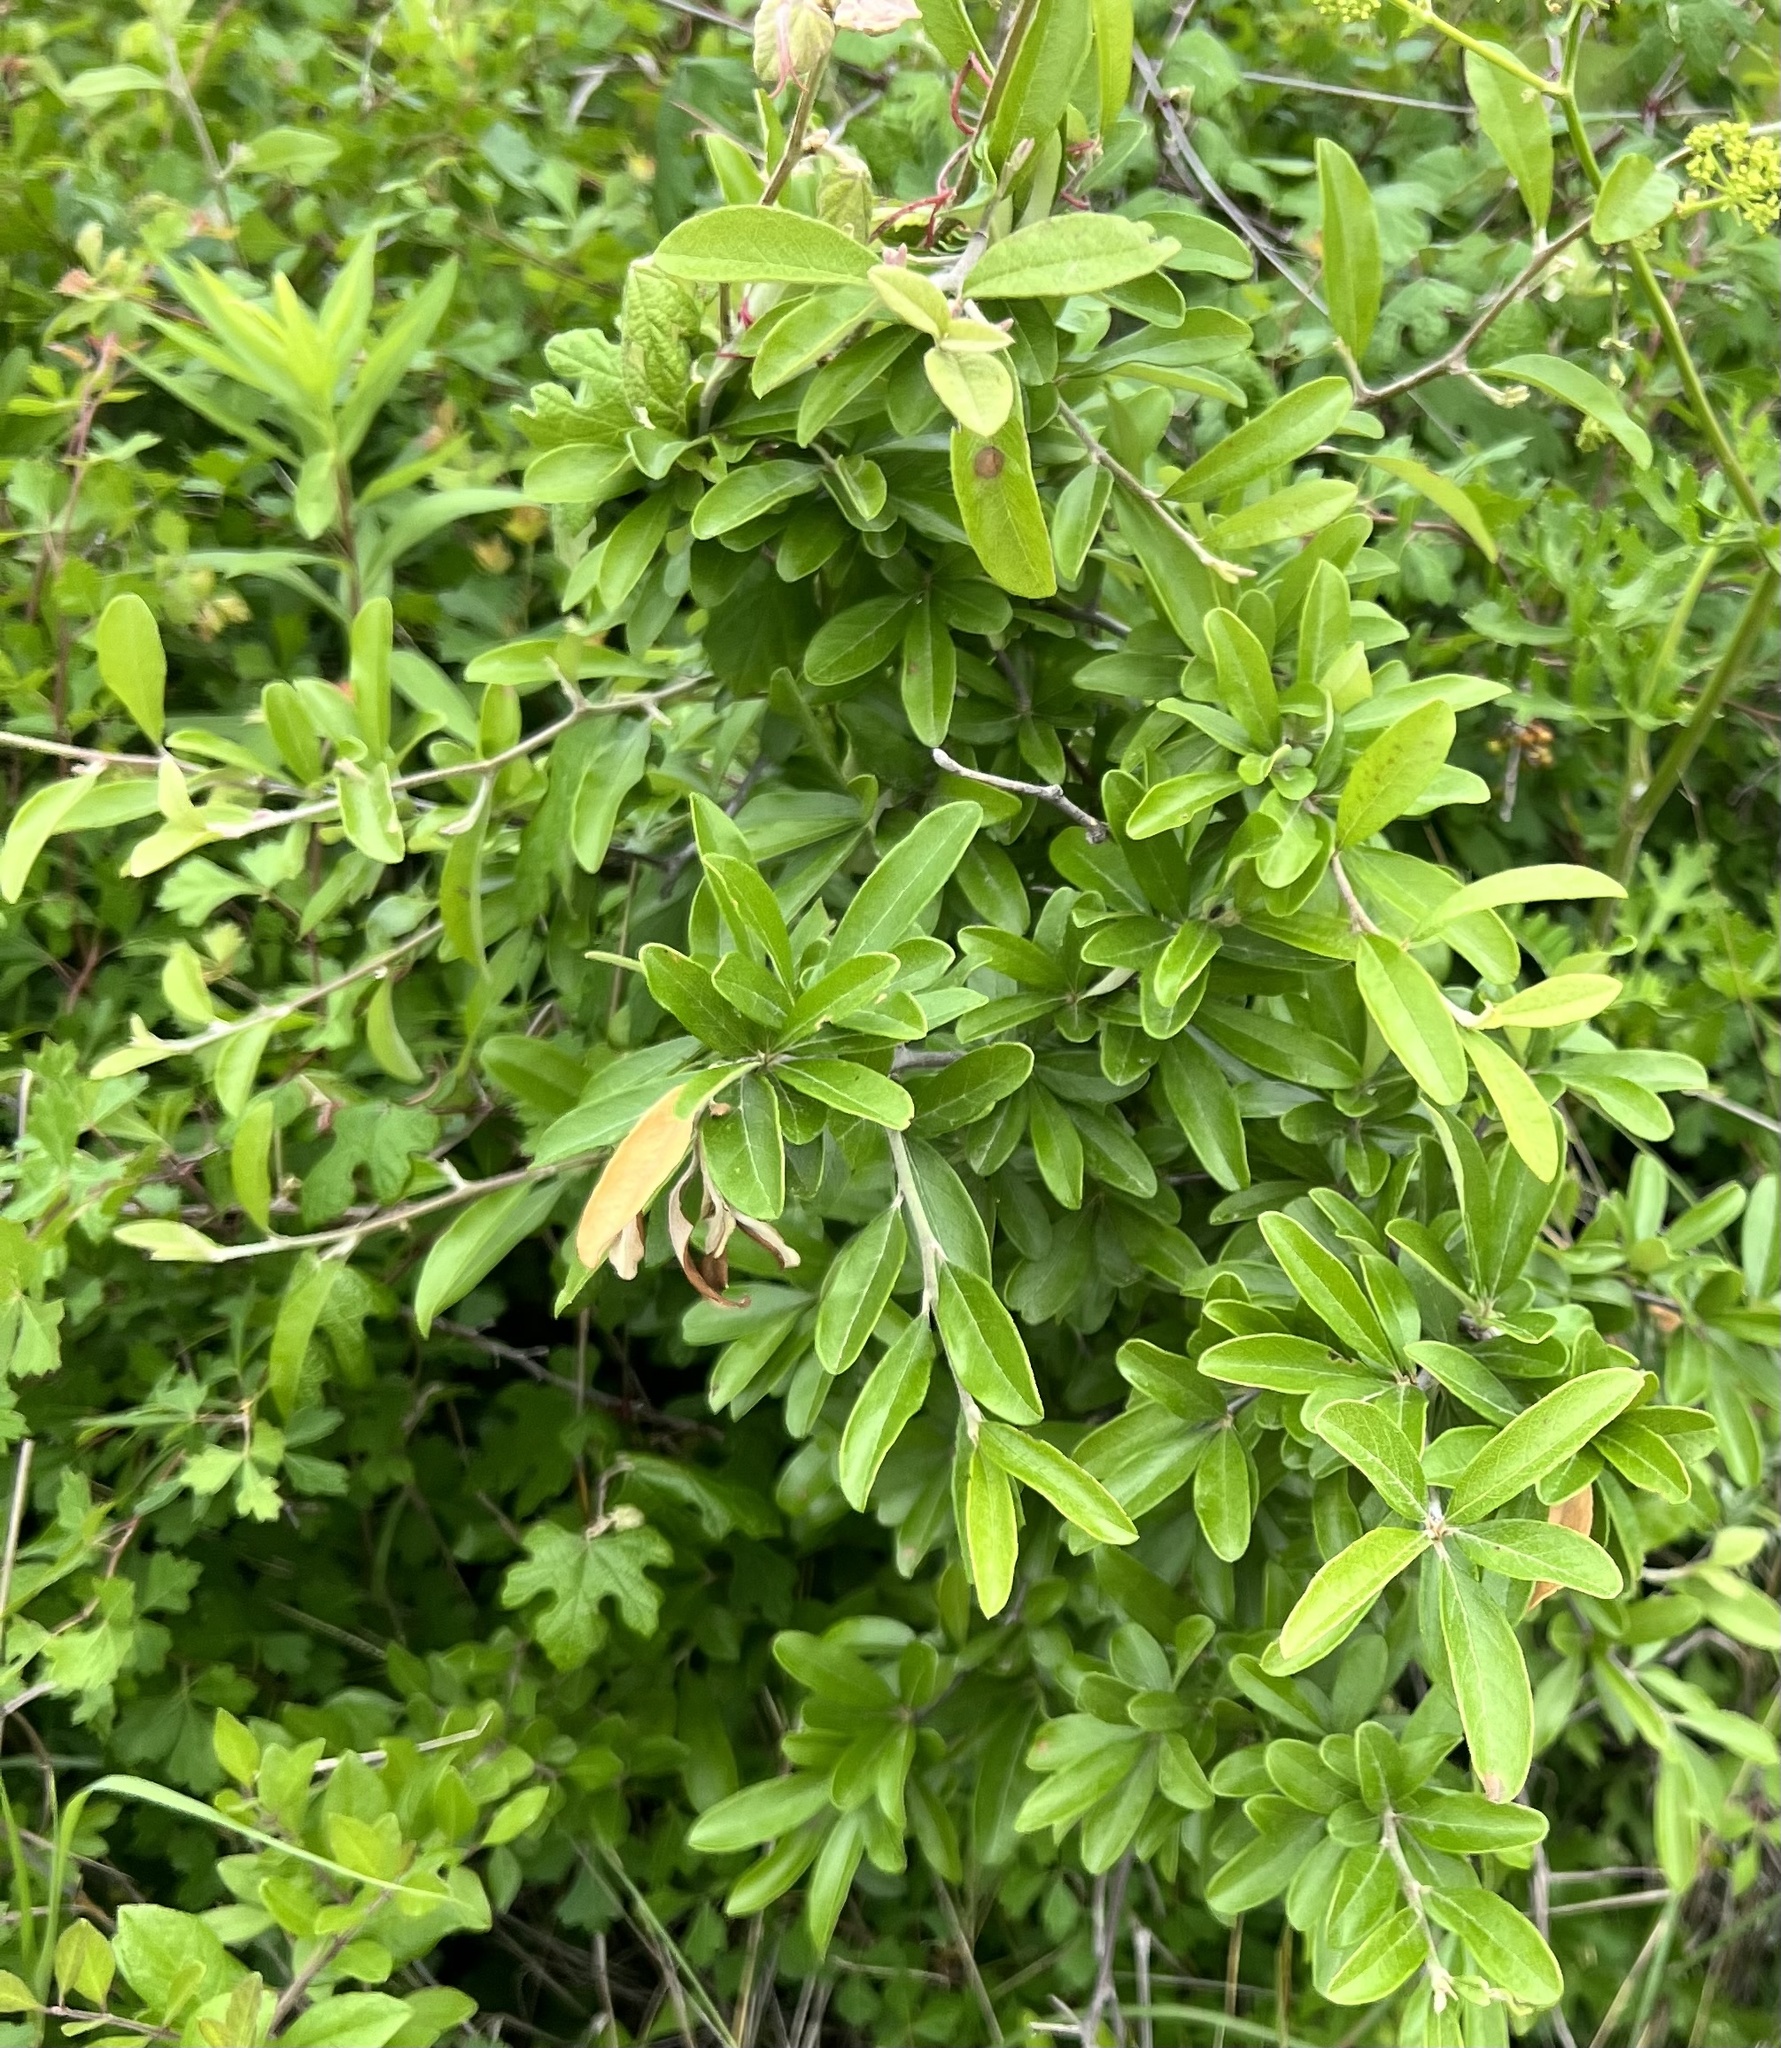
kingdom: Plantae
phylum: Tracheophyta
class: Magnoliopsida
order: Ericales
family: Sapotaceae
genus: Sideroxylon
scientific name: Sideroxylon lanuginosum
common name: Chittamwood
